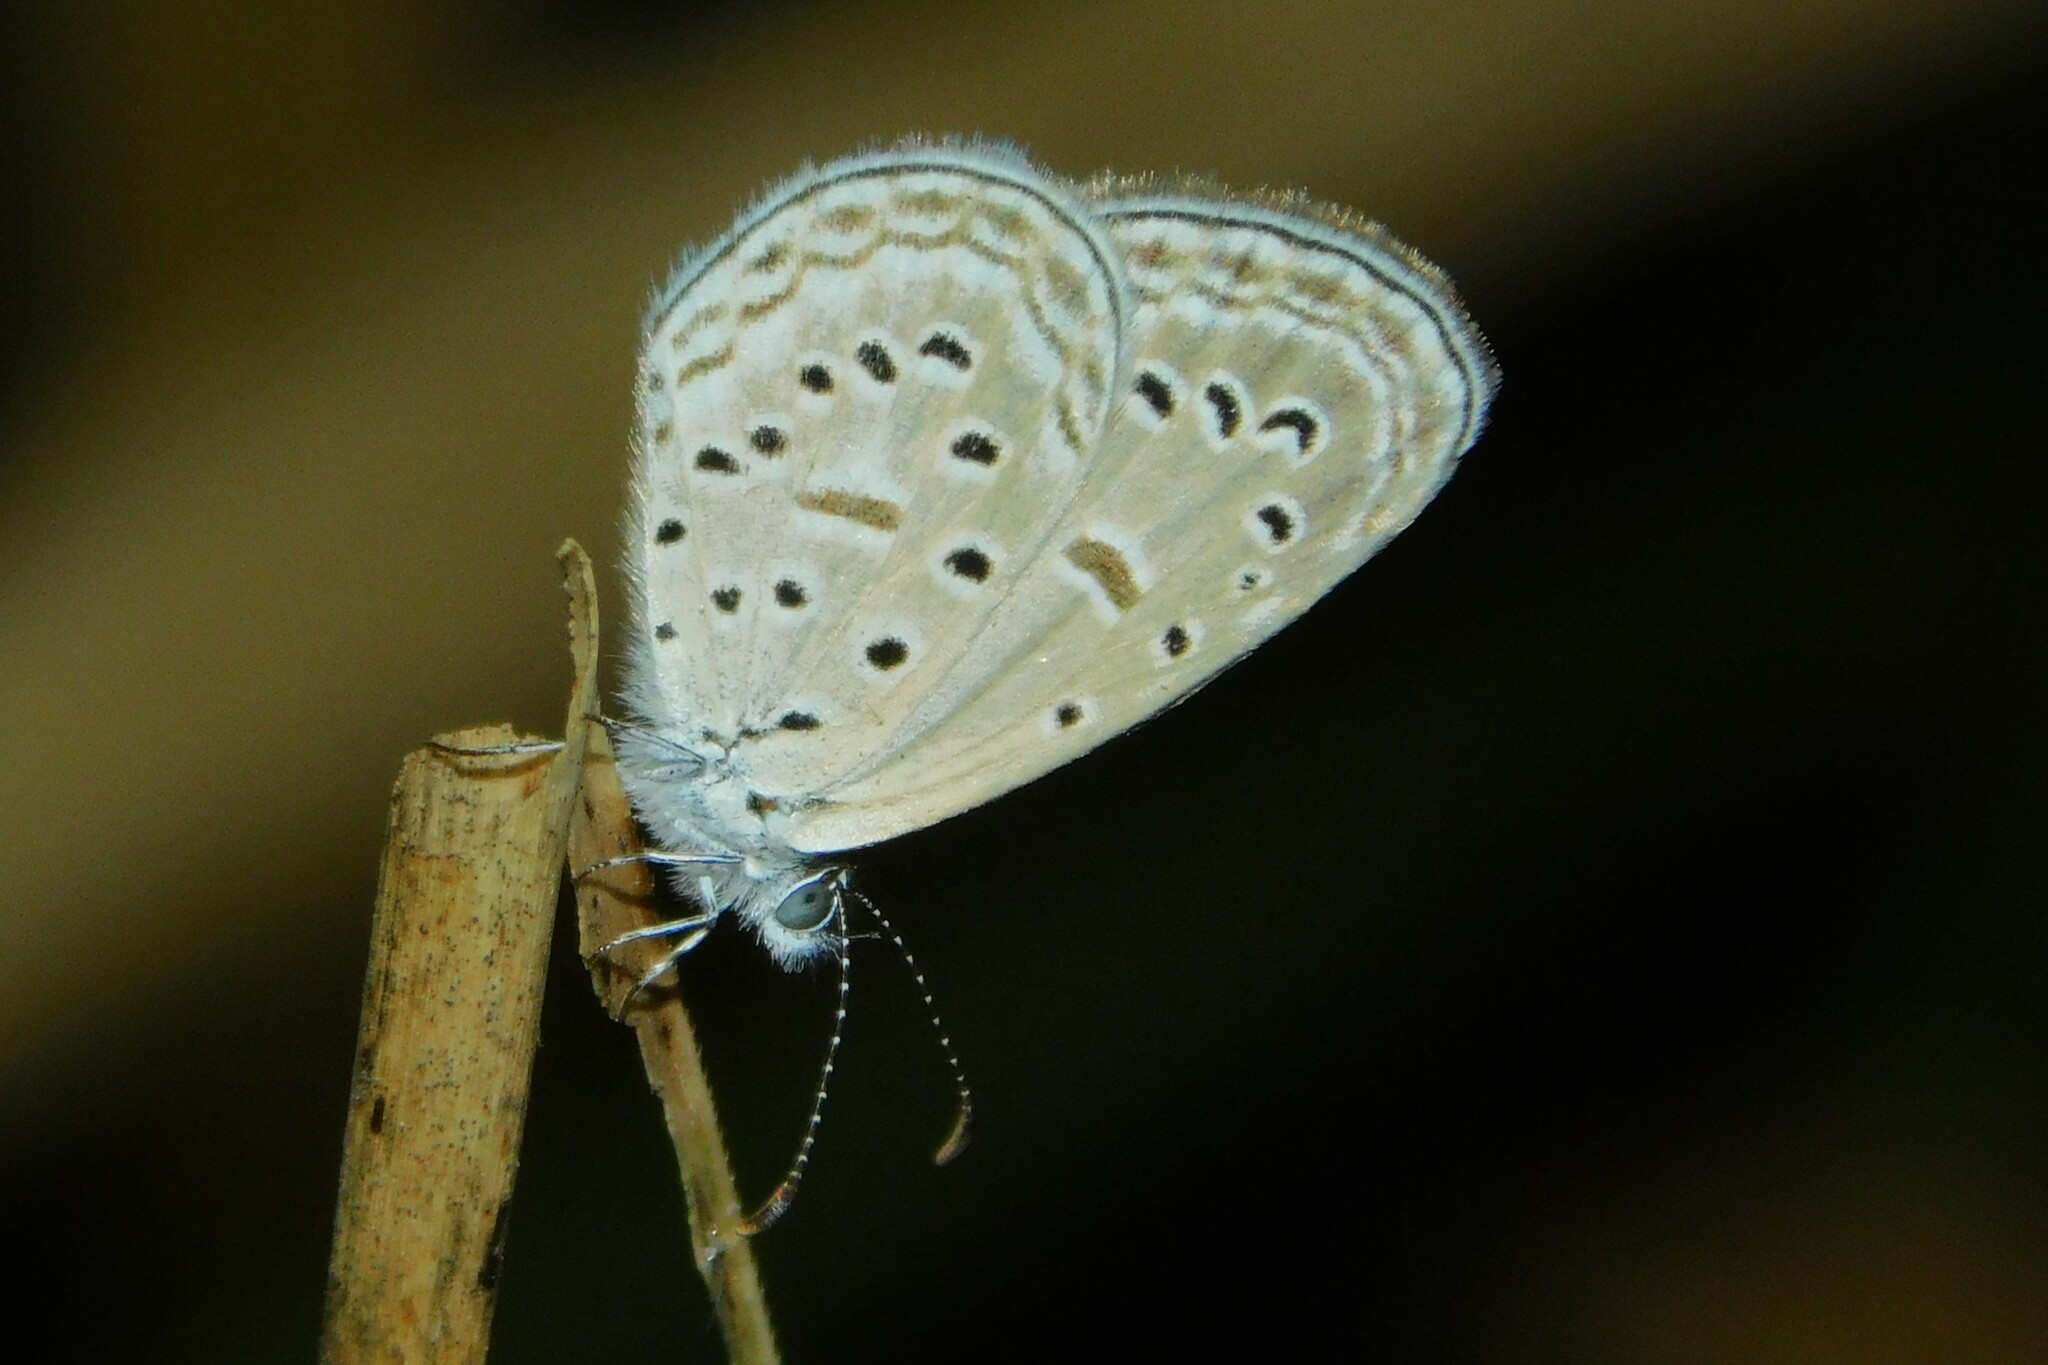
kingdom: Animalia
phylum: Arthropoda
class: Insecta
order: Lepidoptera
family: Lycaenidae
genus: Zizula
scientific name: Zizula hylax
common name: Gaika blue
